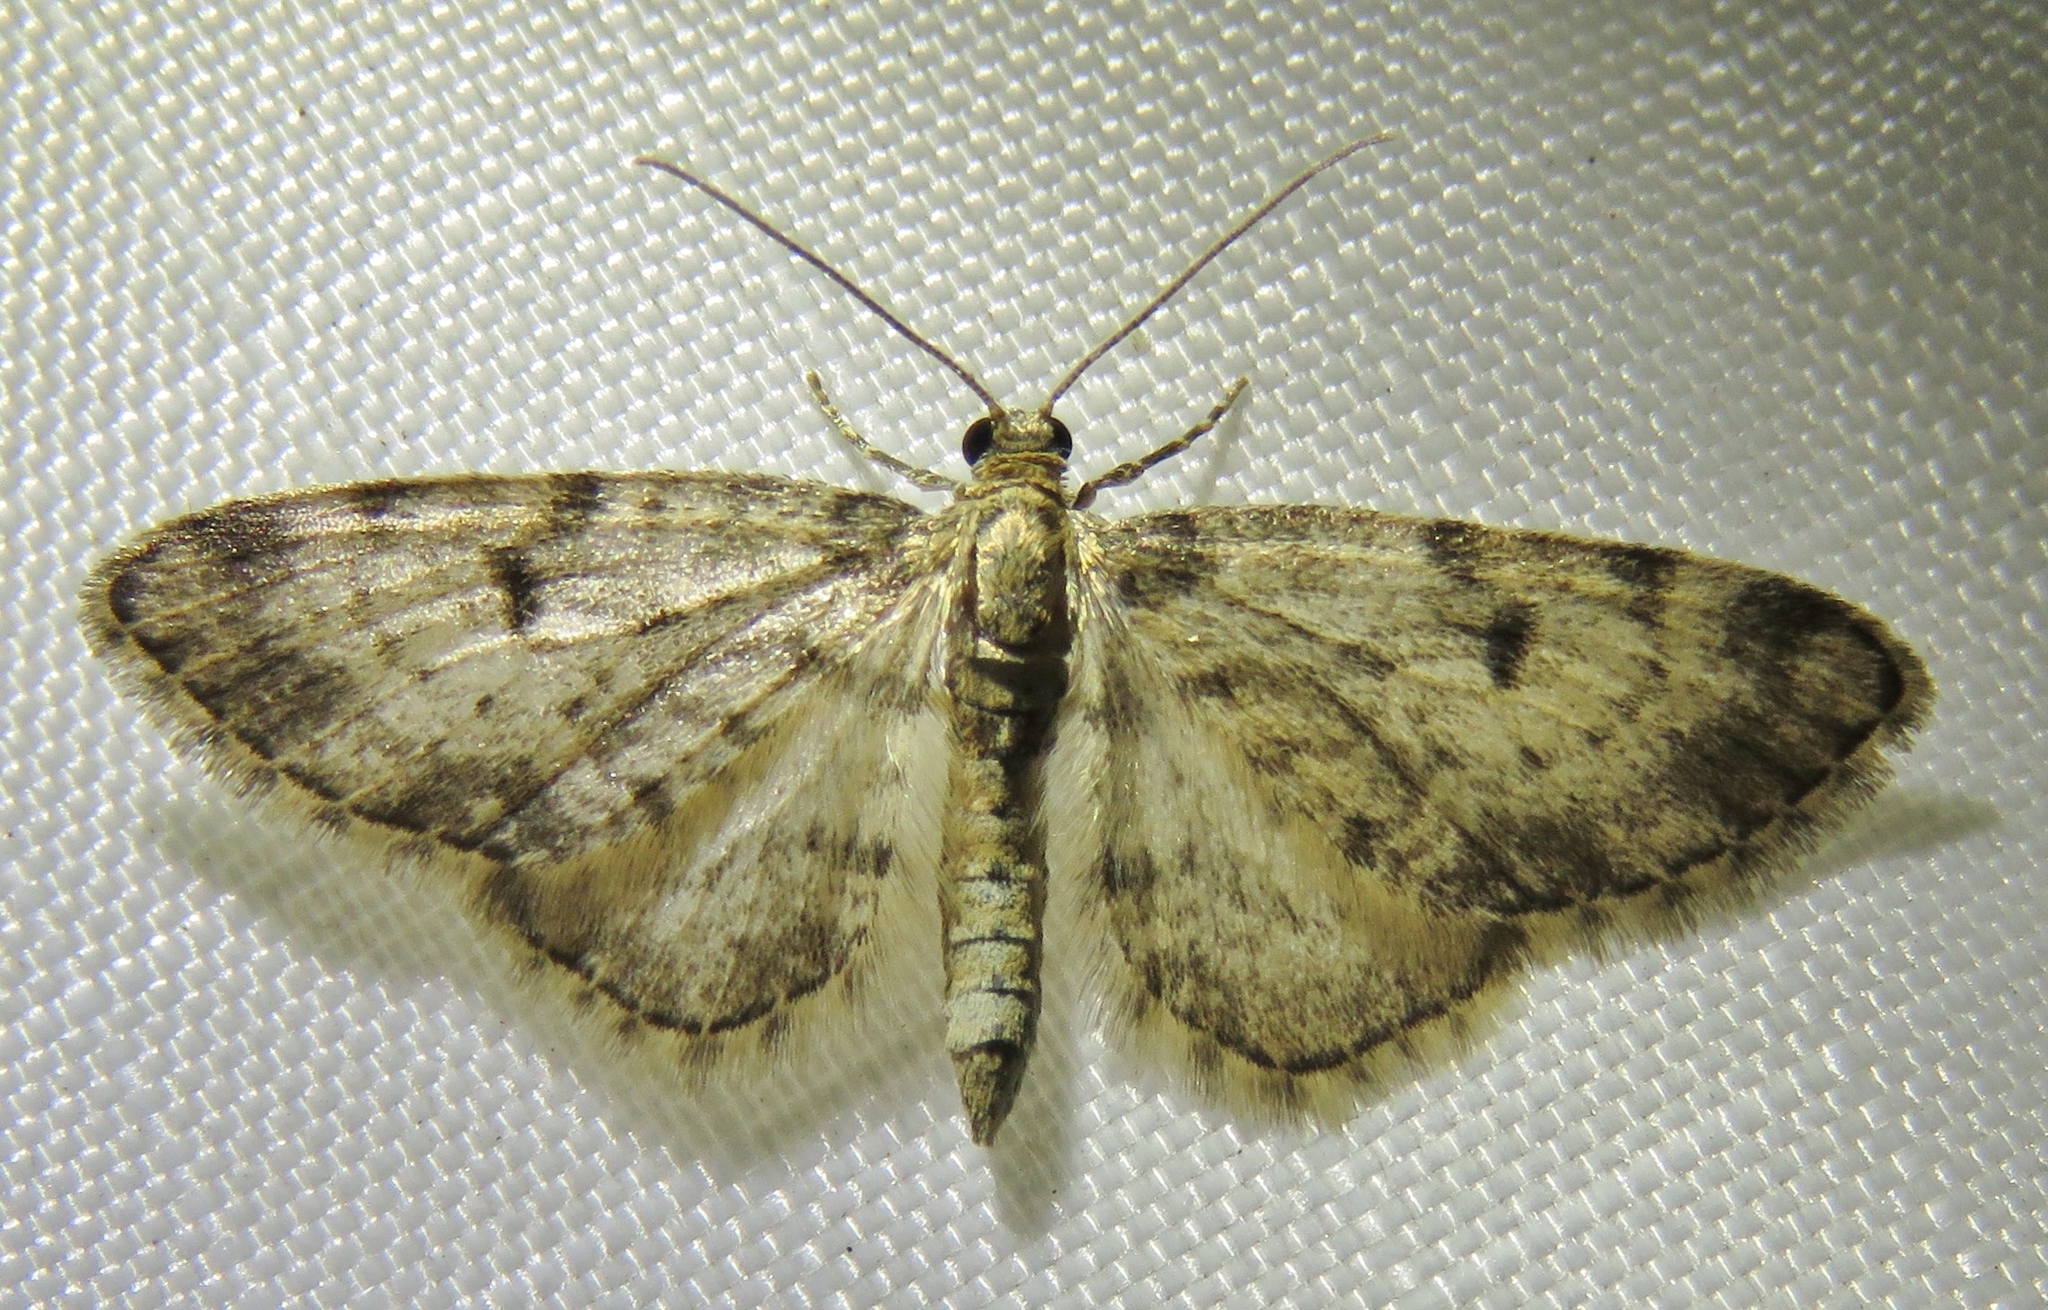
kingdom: Animalia
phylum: Arthropoda
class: Insecta
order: Lepidoptera
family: Geometridae
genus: Eupithecia
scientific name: Eupithecia tantillaria
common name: Dwarf pug
